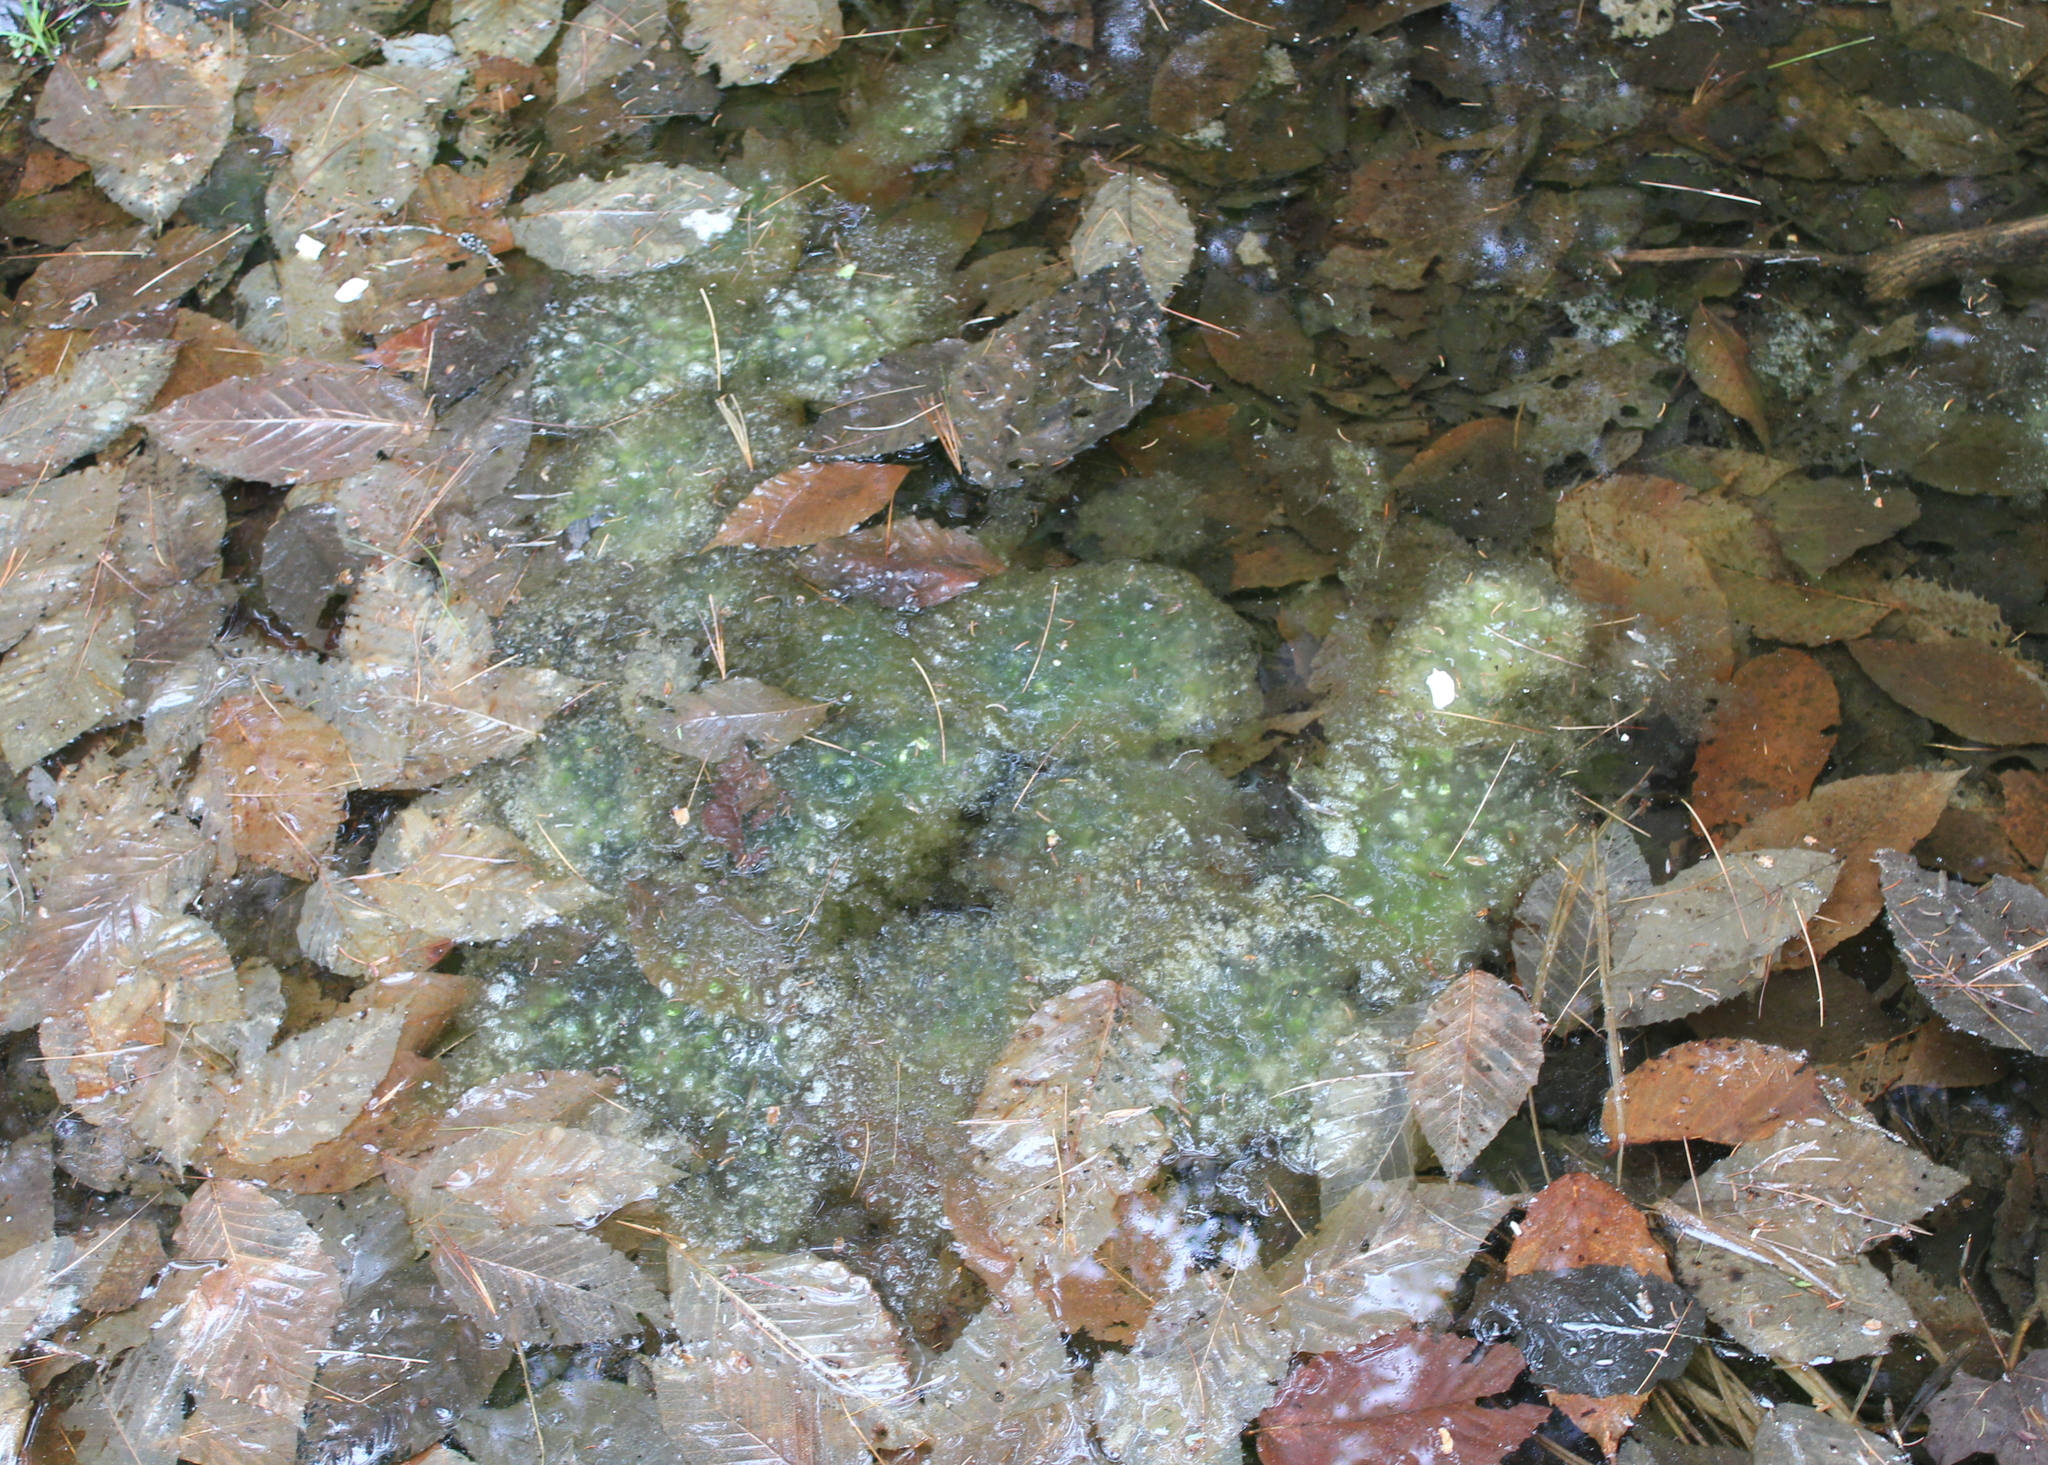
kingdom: Animalia
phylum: Chordata
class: Amphibia
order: Anura
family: Ranidae
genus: Lithobates
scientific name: Lithobates sylvaticus
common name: Wood frog
